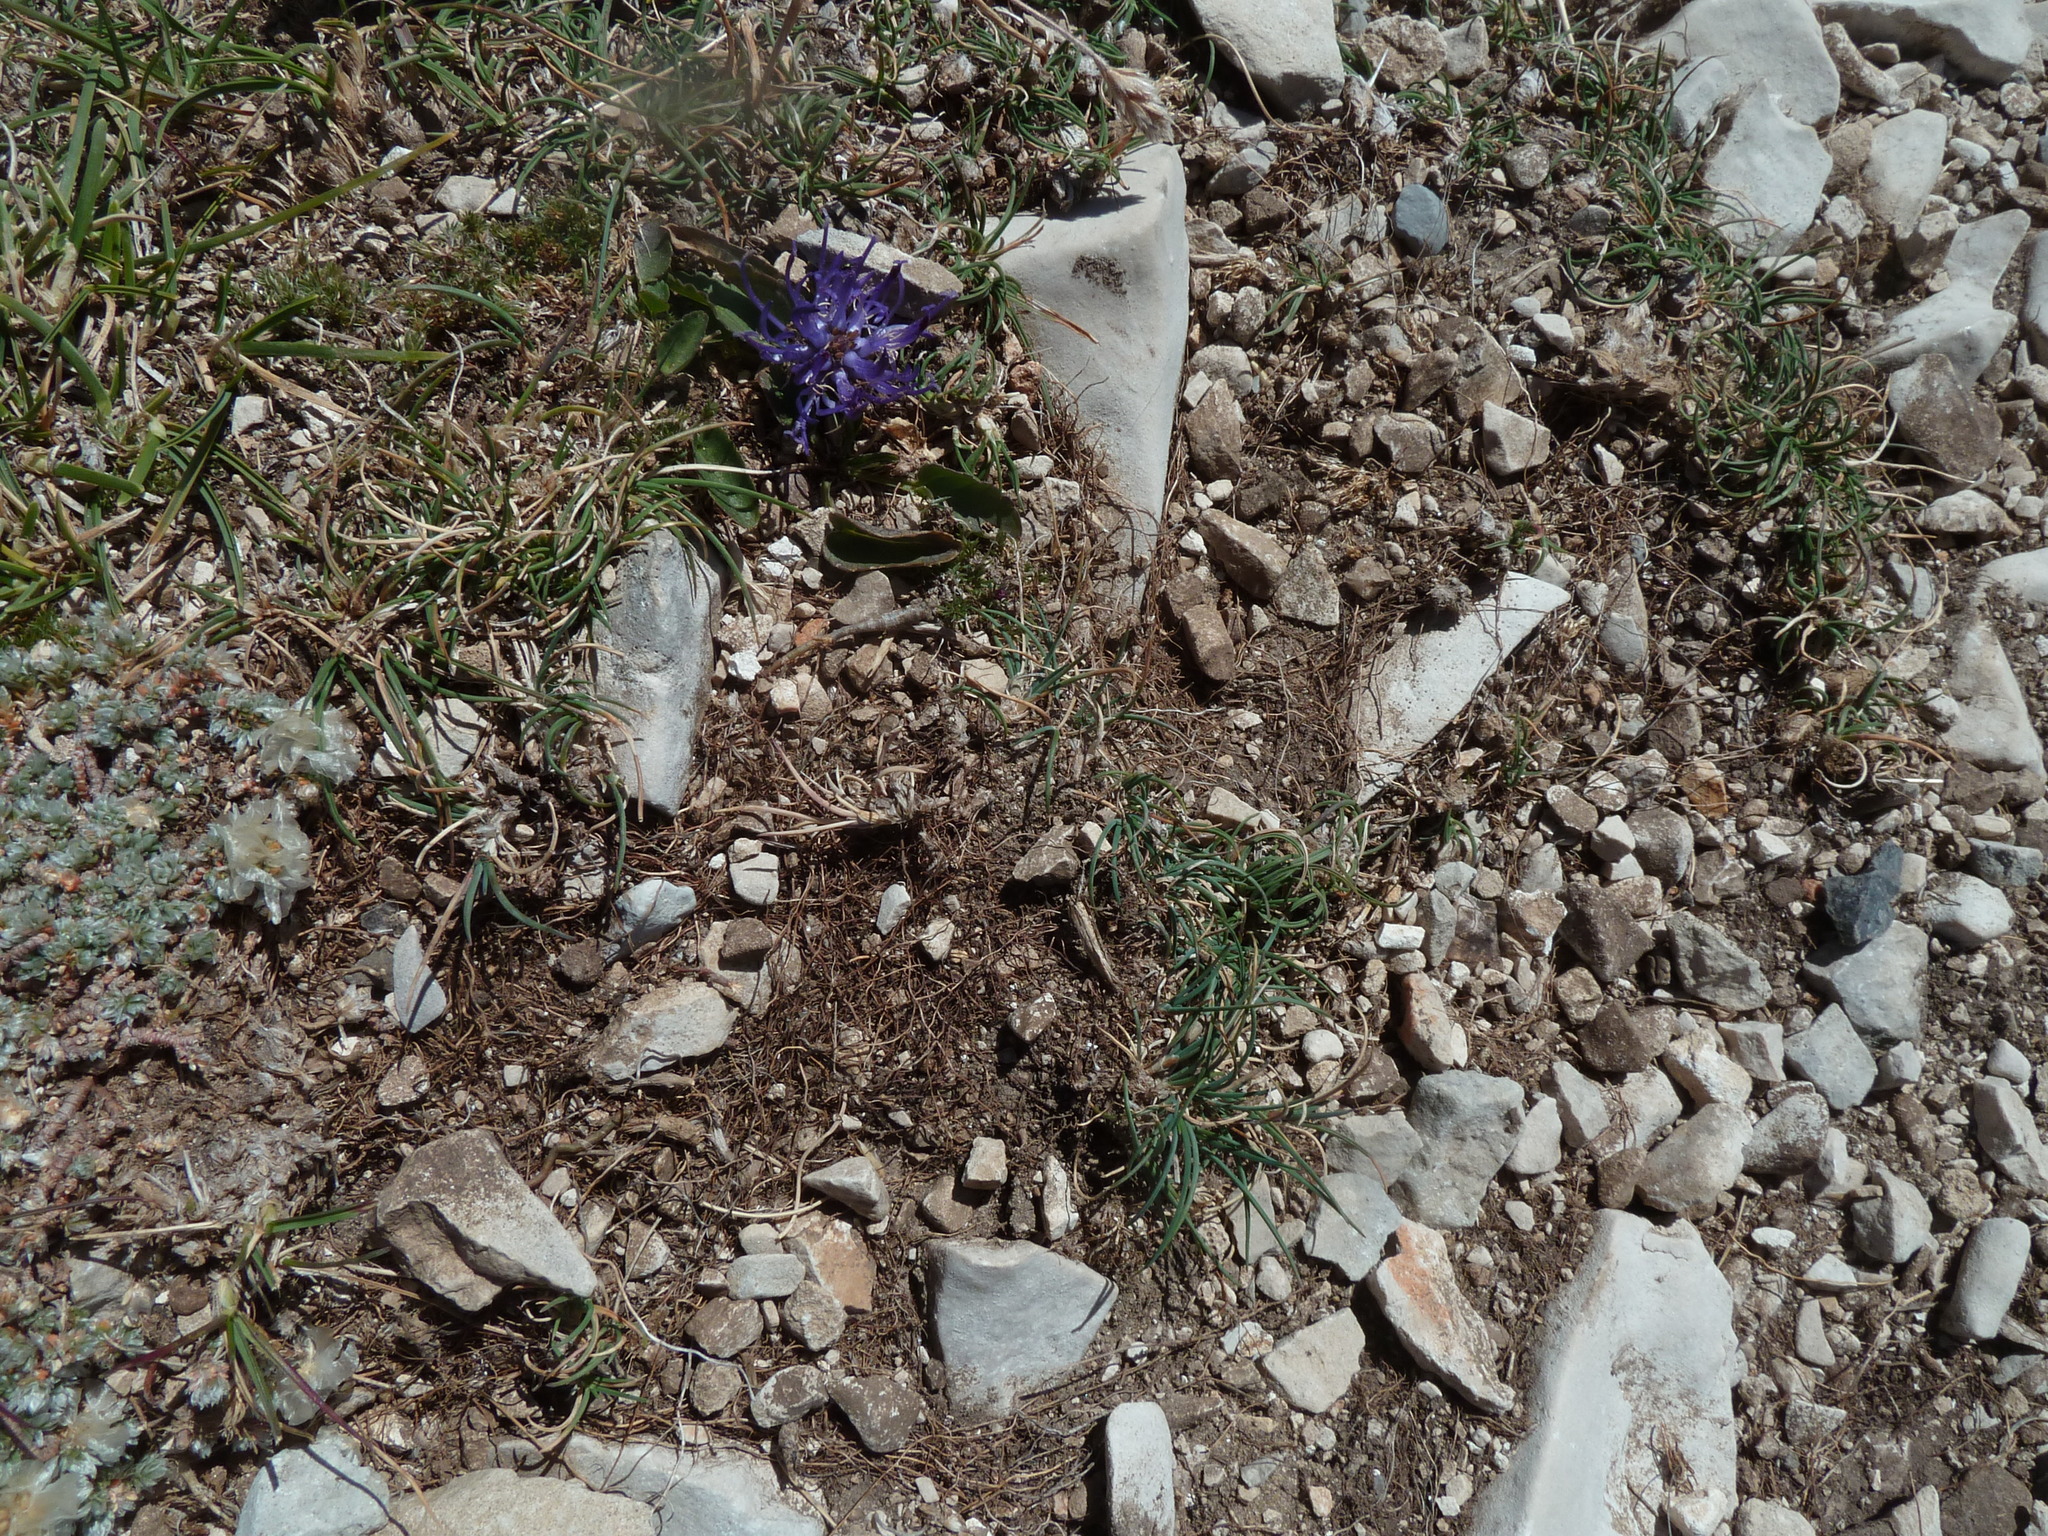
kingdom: Plantae
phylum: Tracheophyta
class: Magnoliopsida
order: Asterales
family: Campanulaceae
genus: Phyteuma
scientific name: Phyteuma orbiculare
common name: Round-headed rampion
